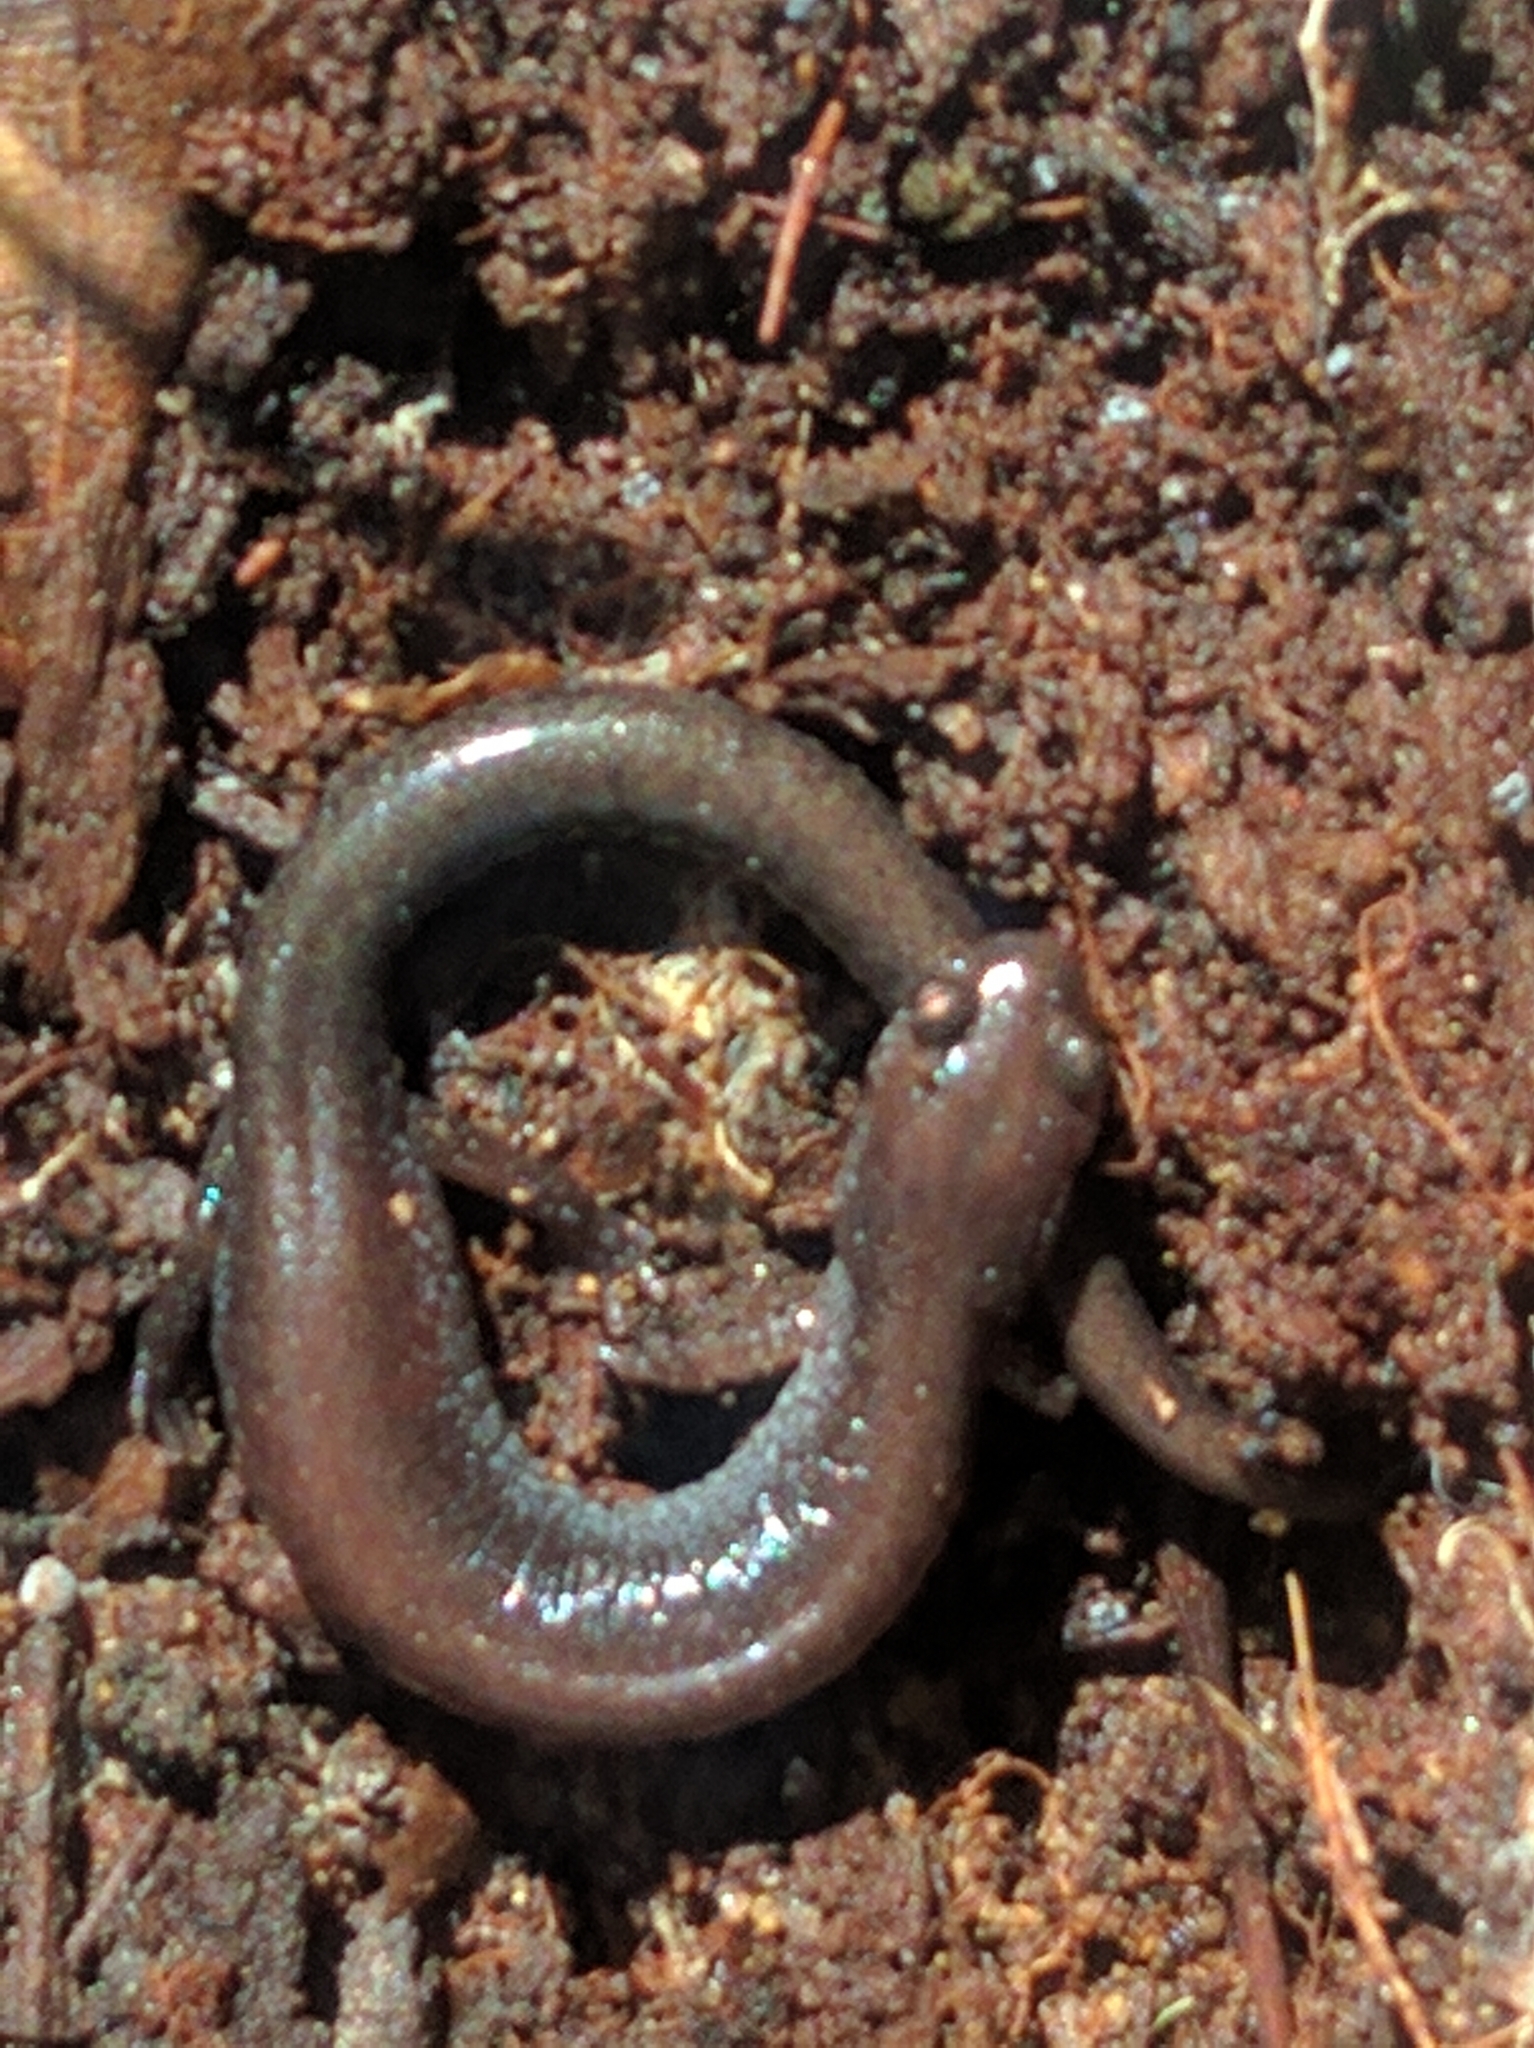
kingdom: Animalia
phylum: Chordata
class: Amphibia
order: Caudata
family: Plethodontidae
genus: Plethodon
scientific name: Plethodon cinereus
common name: Redback salamander
